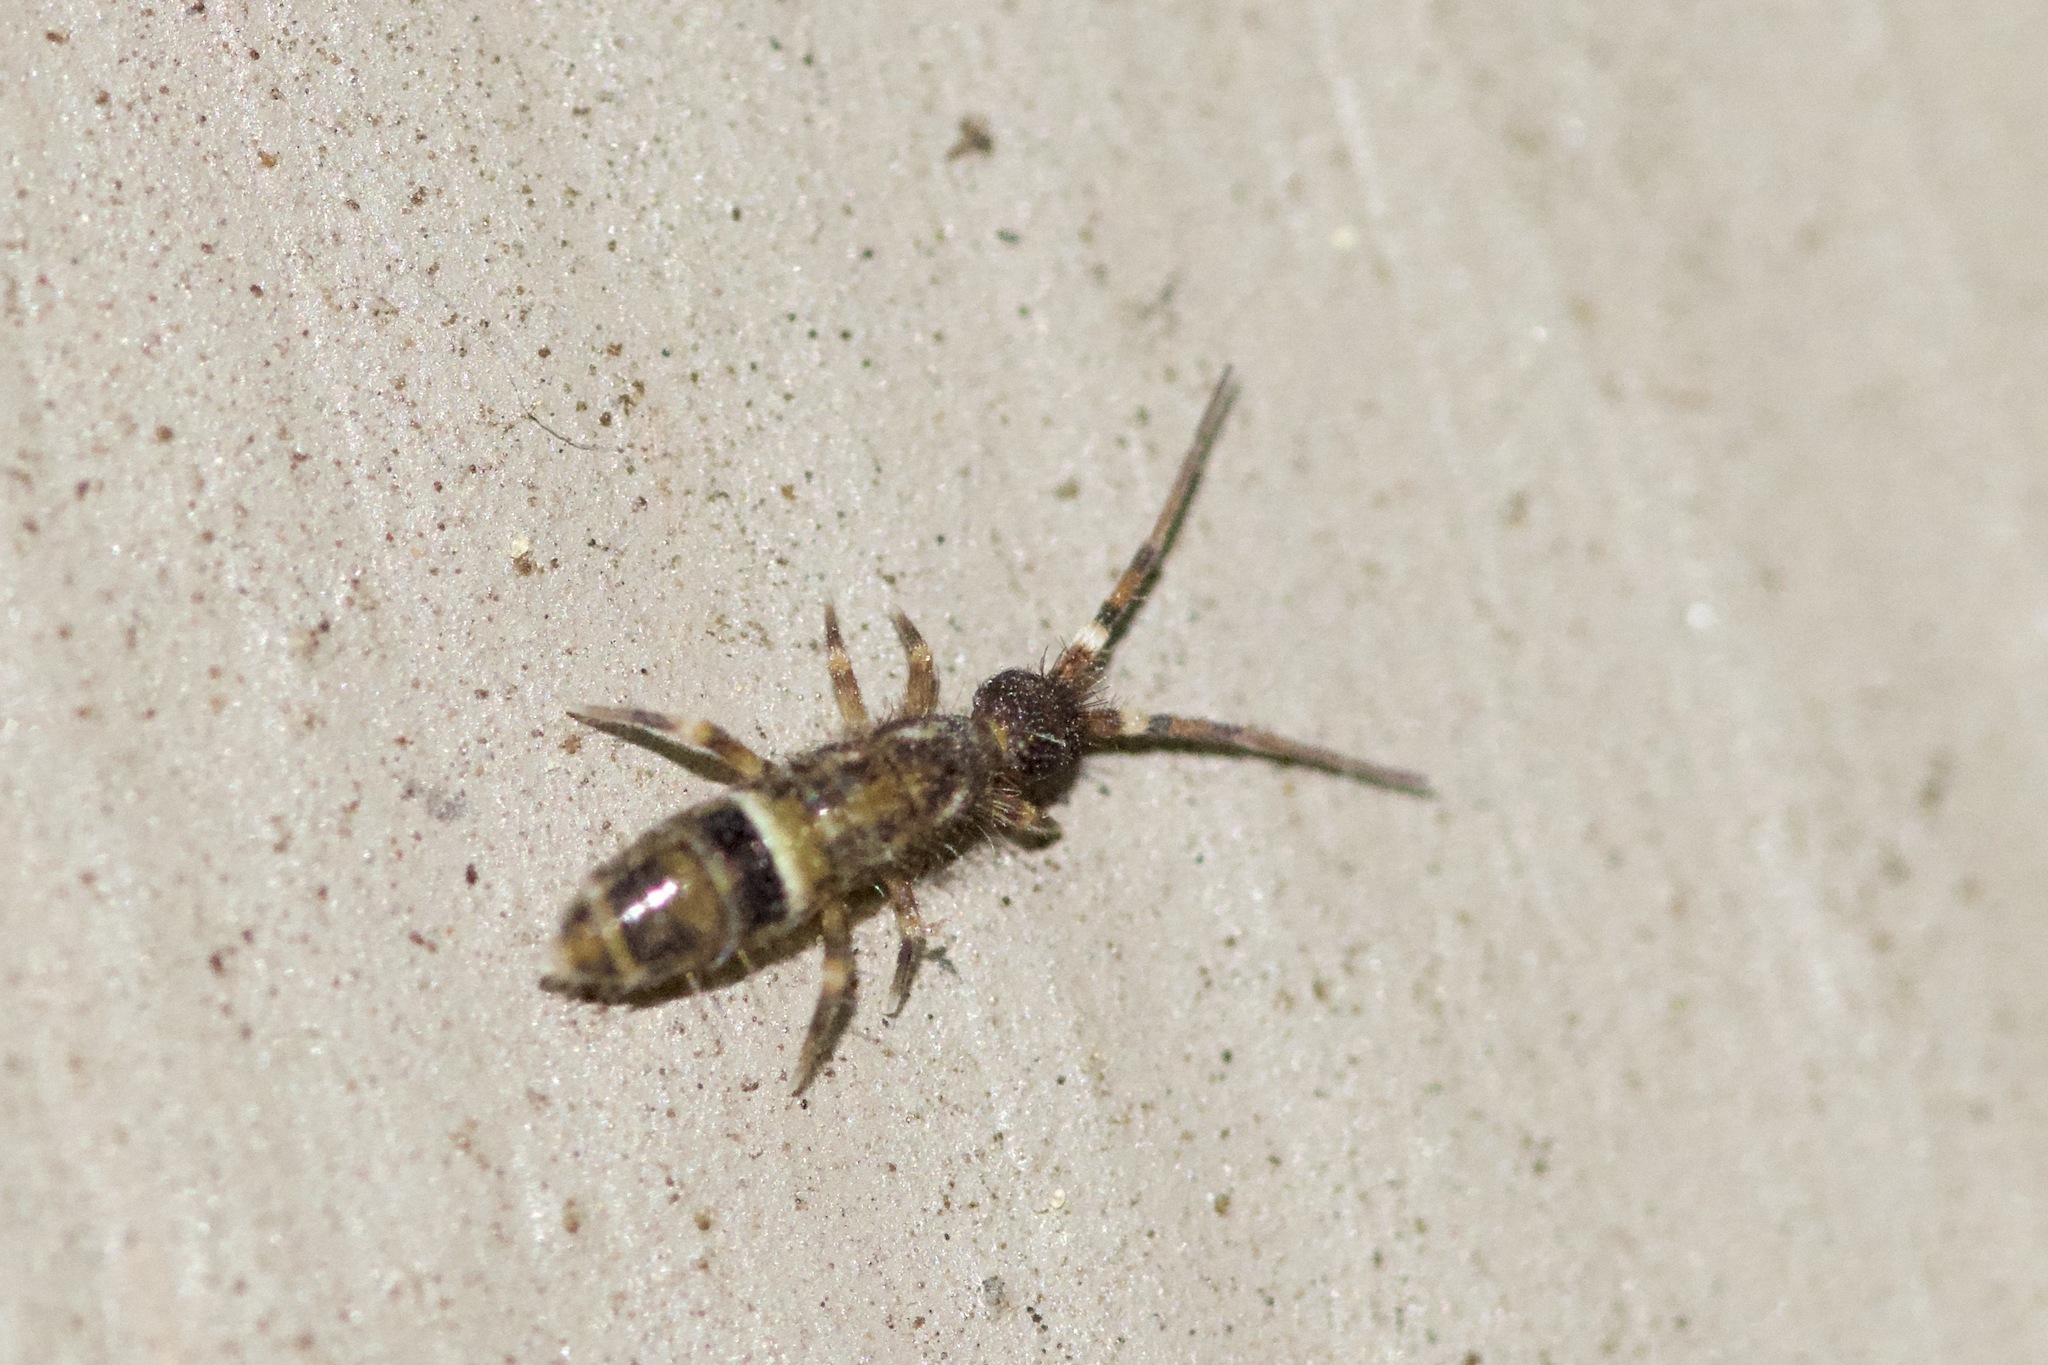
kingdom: Animalia
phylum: Arthropoda
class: Collembola
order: Entomobryomorpha
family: Orchesellidae
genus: Orchesella
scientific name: Orchesella cincta
